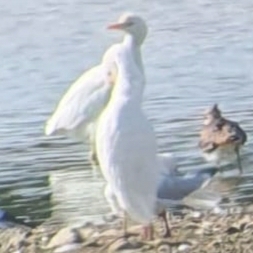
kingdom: Animalia
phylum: Chordata
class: Aves
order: Pelecaniformes
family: Ardeidae
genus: Bubulcus
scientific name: Bubulcus ibis
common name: Cattle egret
